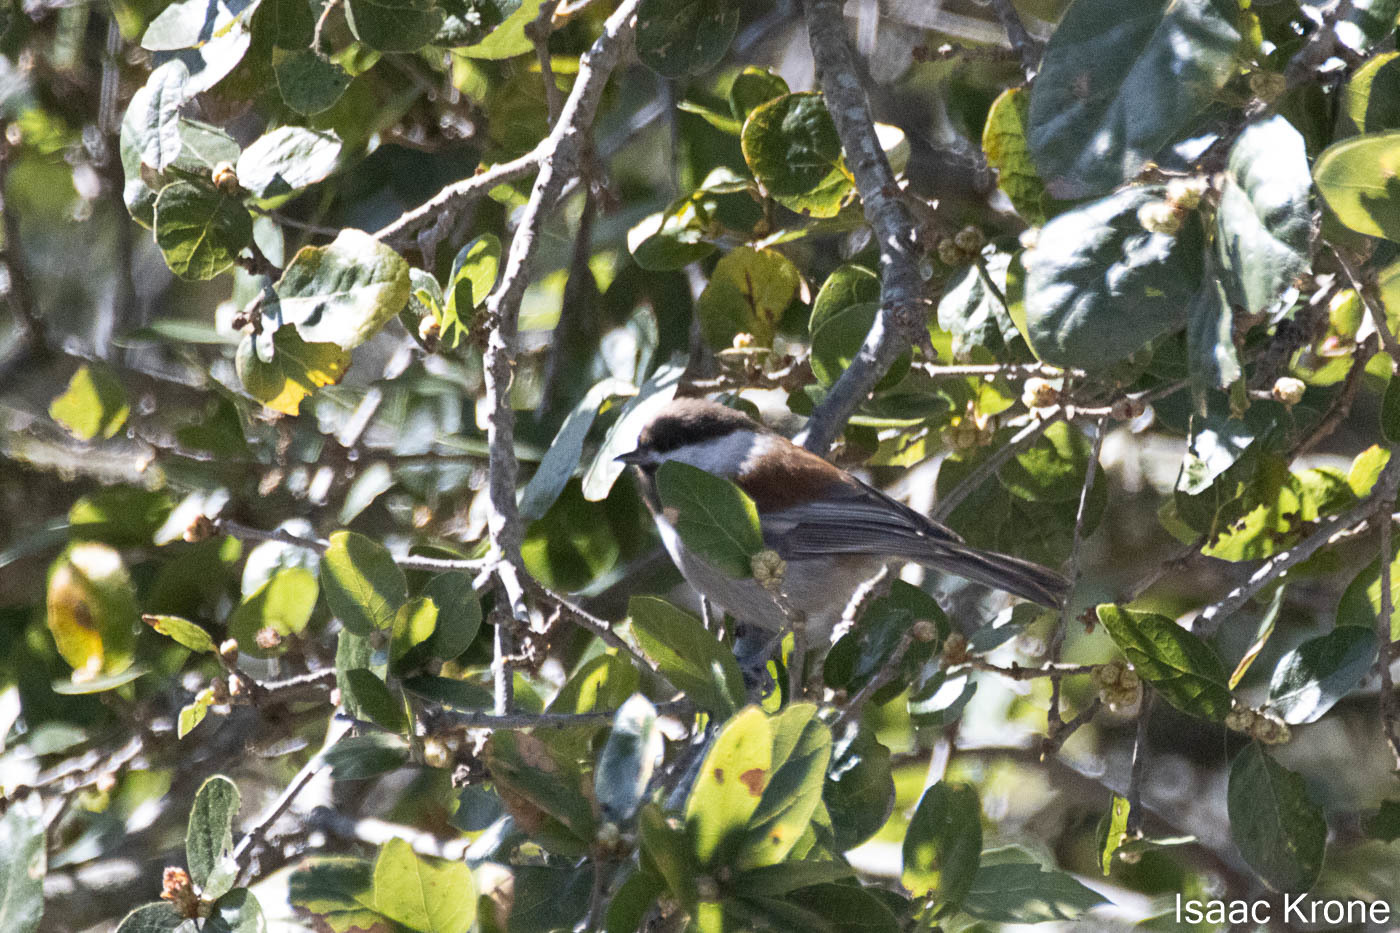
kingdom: Animalia
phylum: Chordata
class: Aves
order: Passeriformes
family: Paridae
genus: Poecile
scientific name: Poecile rufescens
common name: Chestnut-backed chickadee
